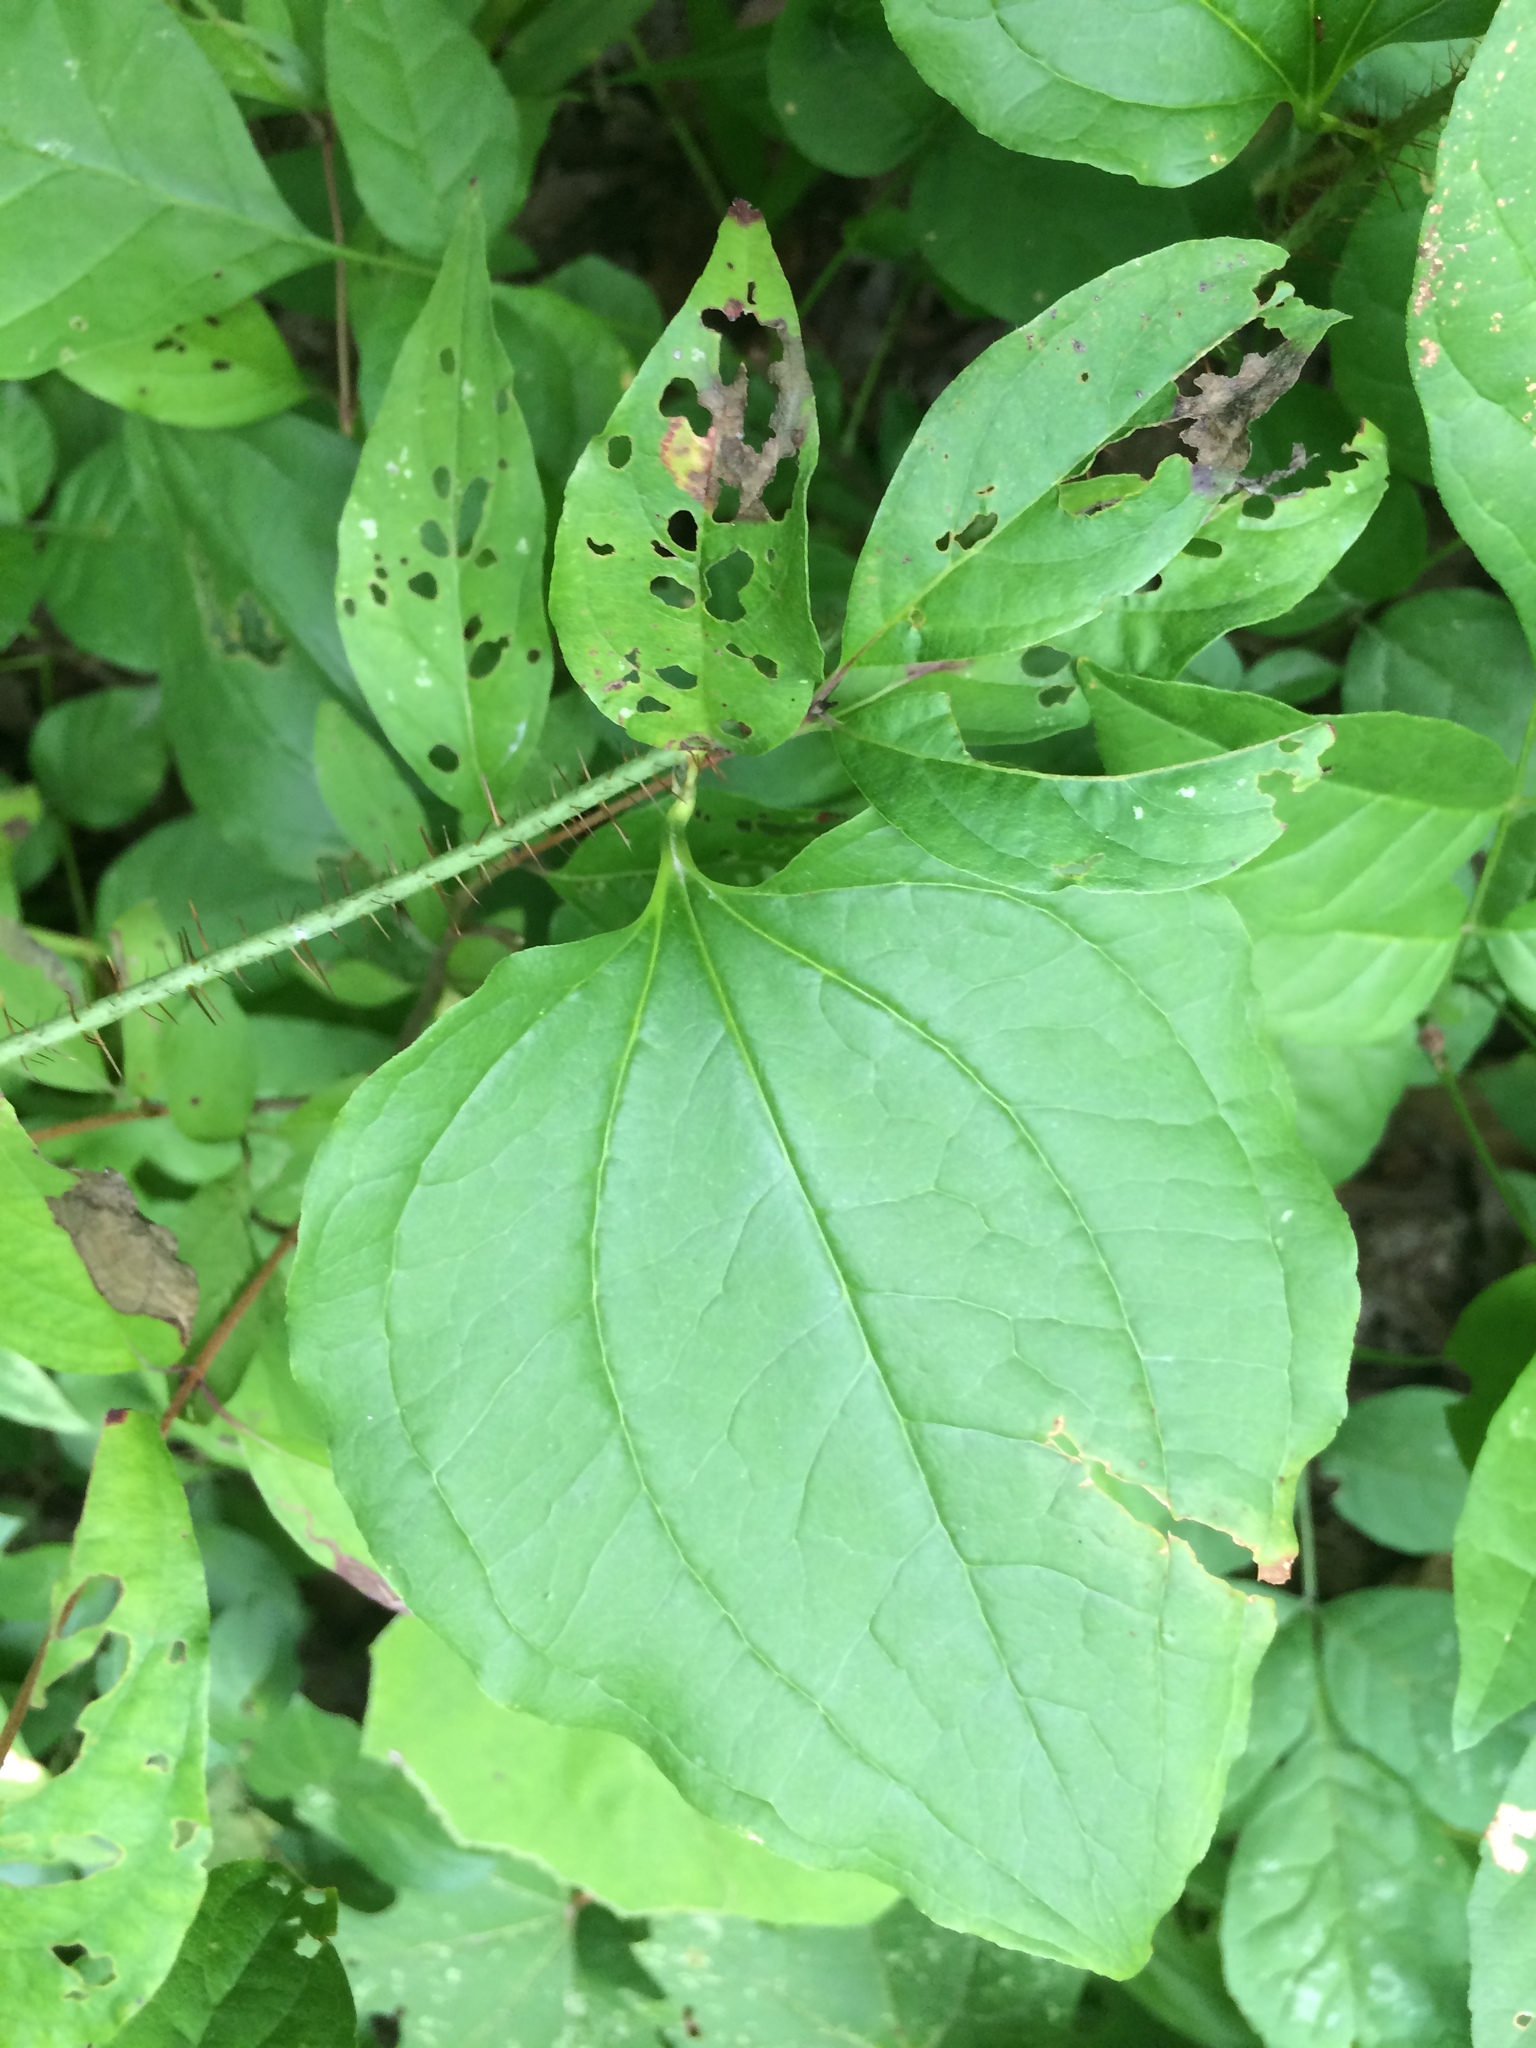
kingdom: Plantae
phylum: Tracheophyta
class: Liliopsida
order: Liliales
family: Smilacaceae
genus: Smilax
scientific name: Smilax tamnoides
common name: Hellfetter
